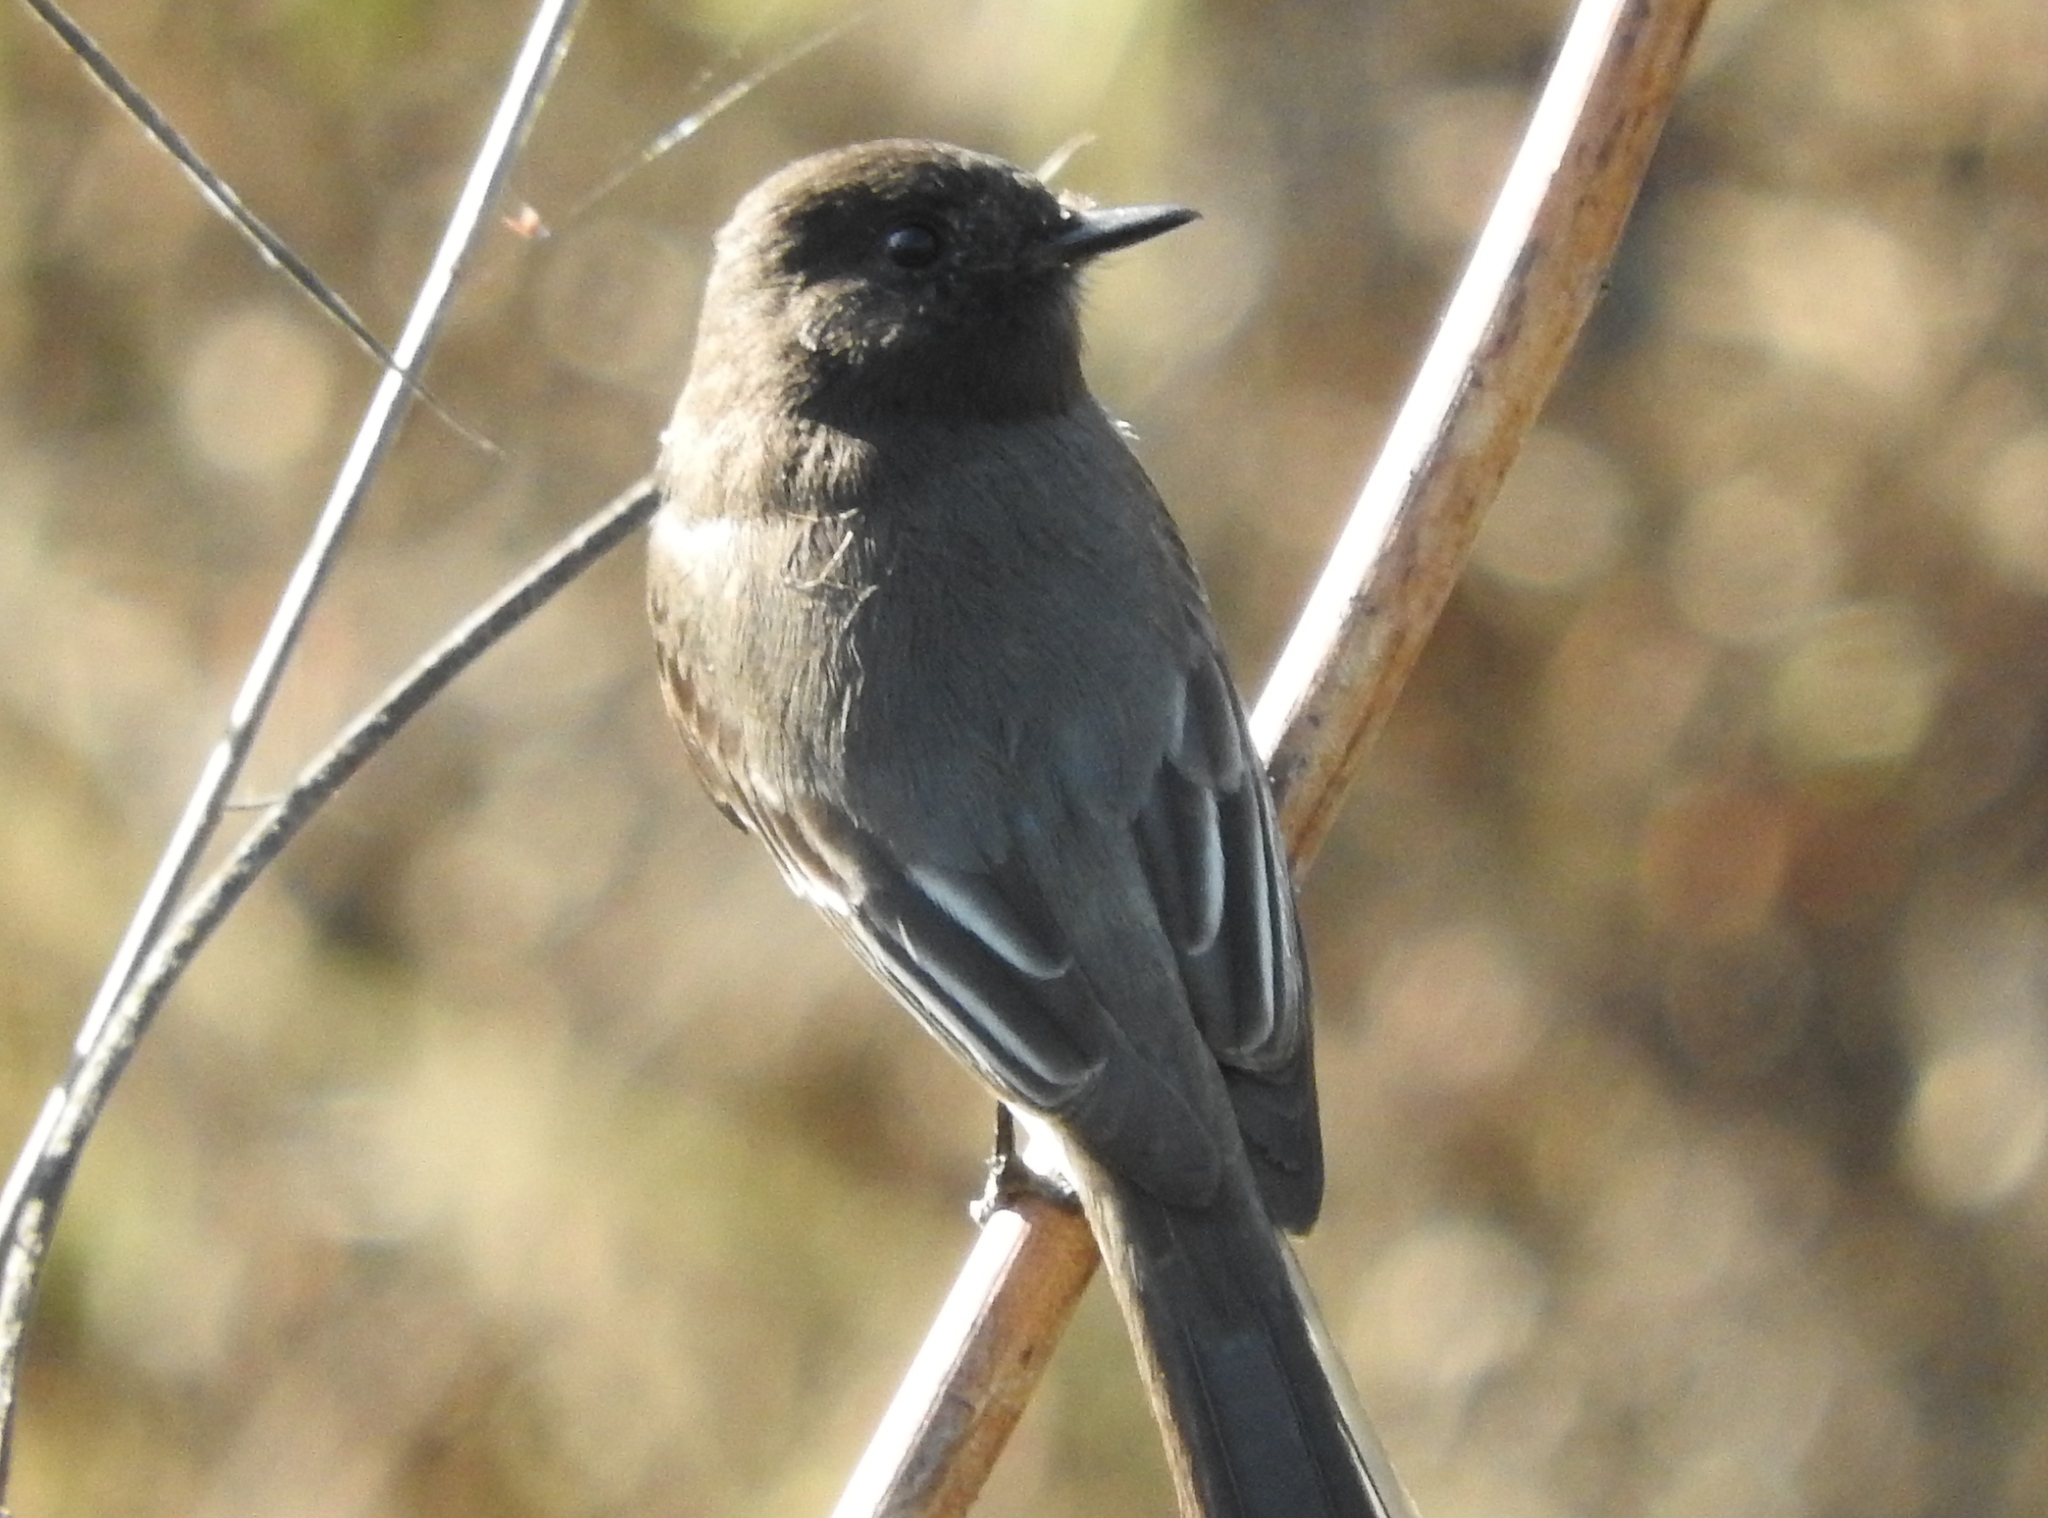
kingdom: Animalia
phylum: Chordata
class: Aves
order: Passeriformes
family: Tyrannidae
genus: Sayornis
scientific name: Sayornis nigricans
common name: Black phoebe
